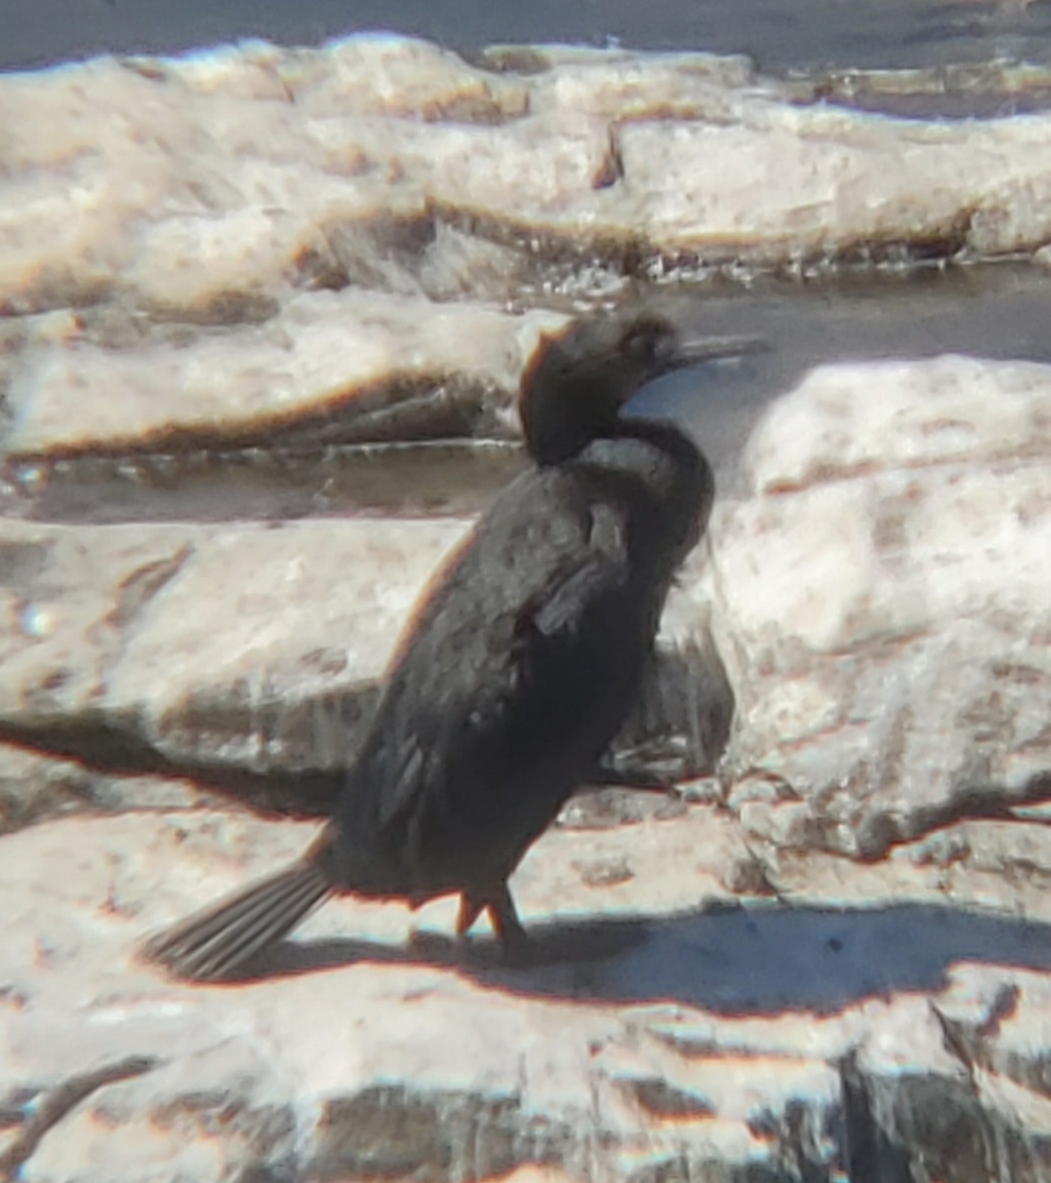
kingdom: Animalia
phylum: Chordata
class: Aves
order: Suliformes
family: Phalacrocoracidae
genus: Urile
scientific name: Urile penicillatus
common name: Brandt's cormorant
